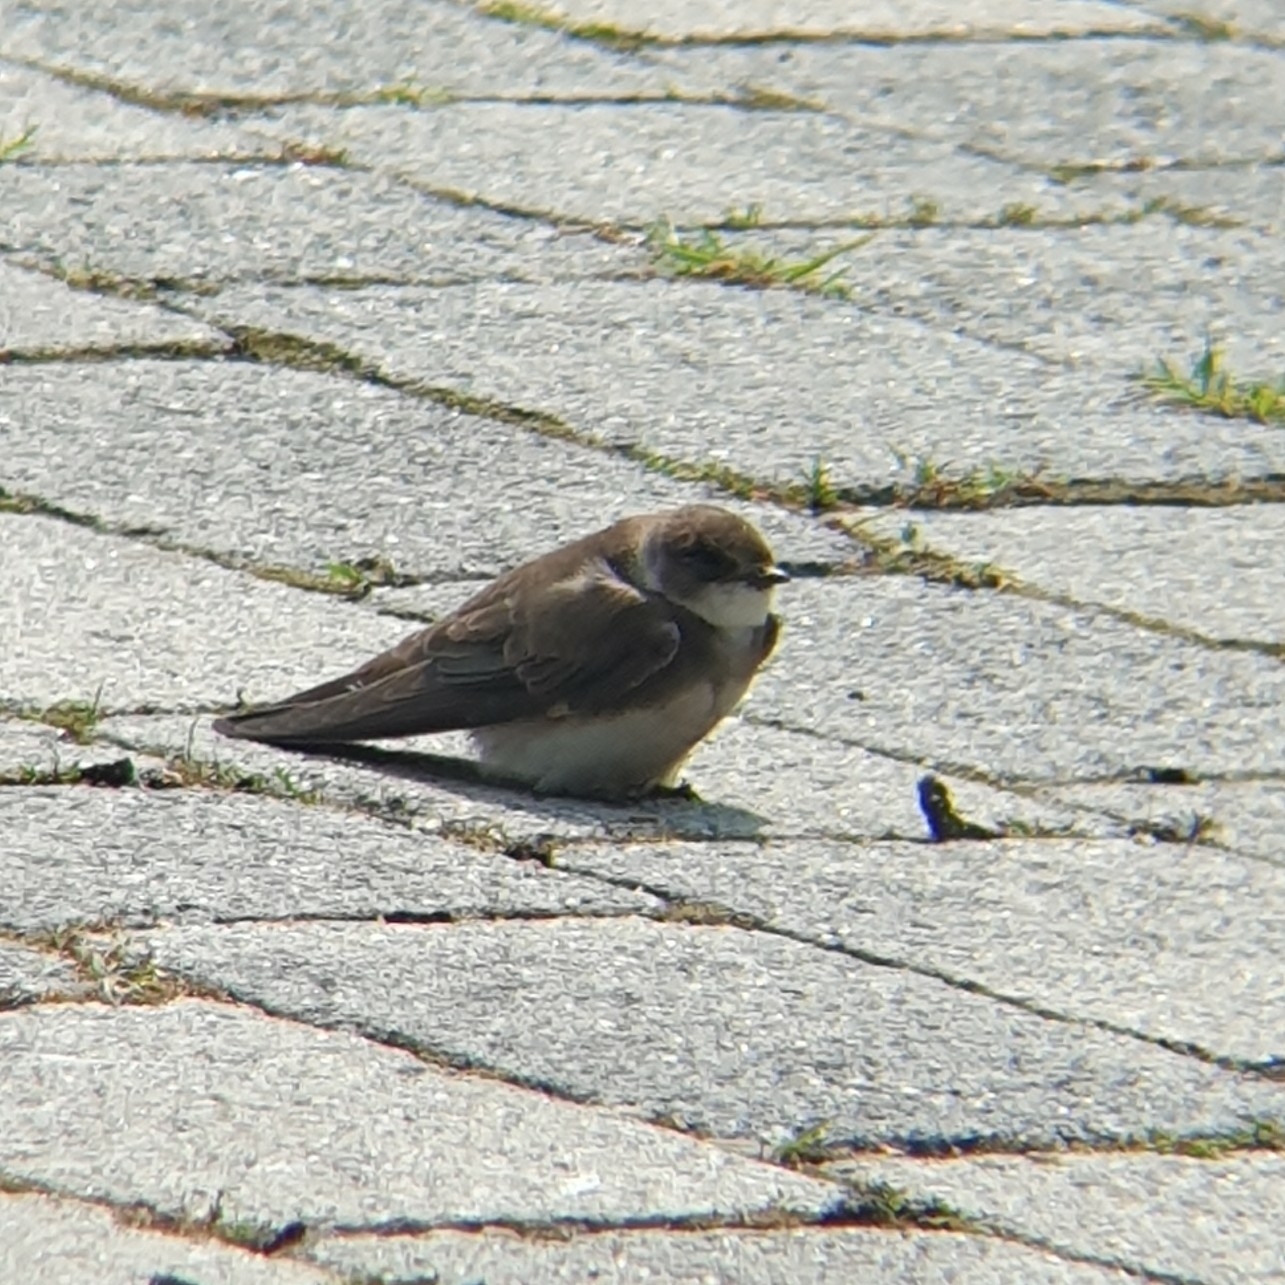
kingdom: Animalia
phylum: Chordata
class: Aves
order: Passeriformes
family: Hirundinidae
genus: Riparia
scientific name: Riparia riparia
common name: Sand martin
